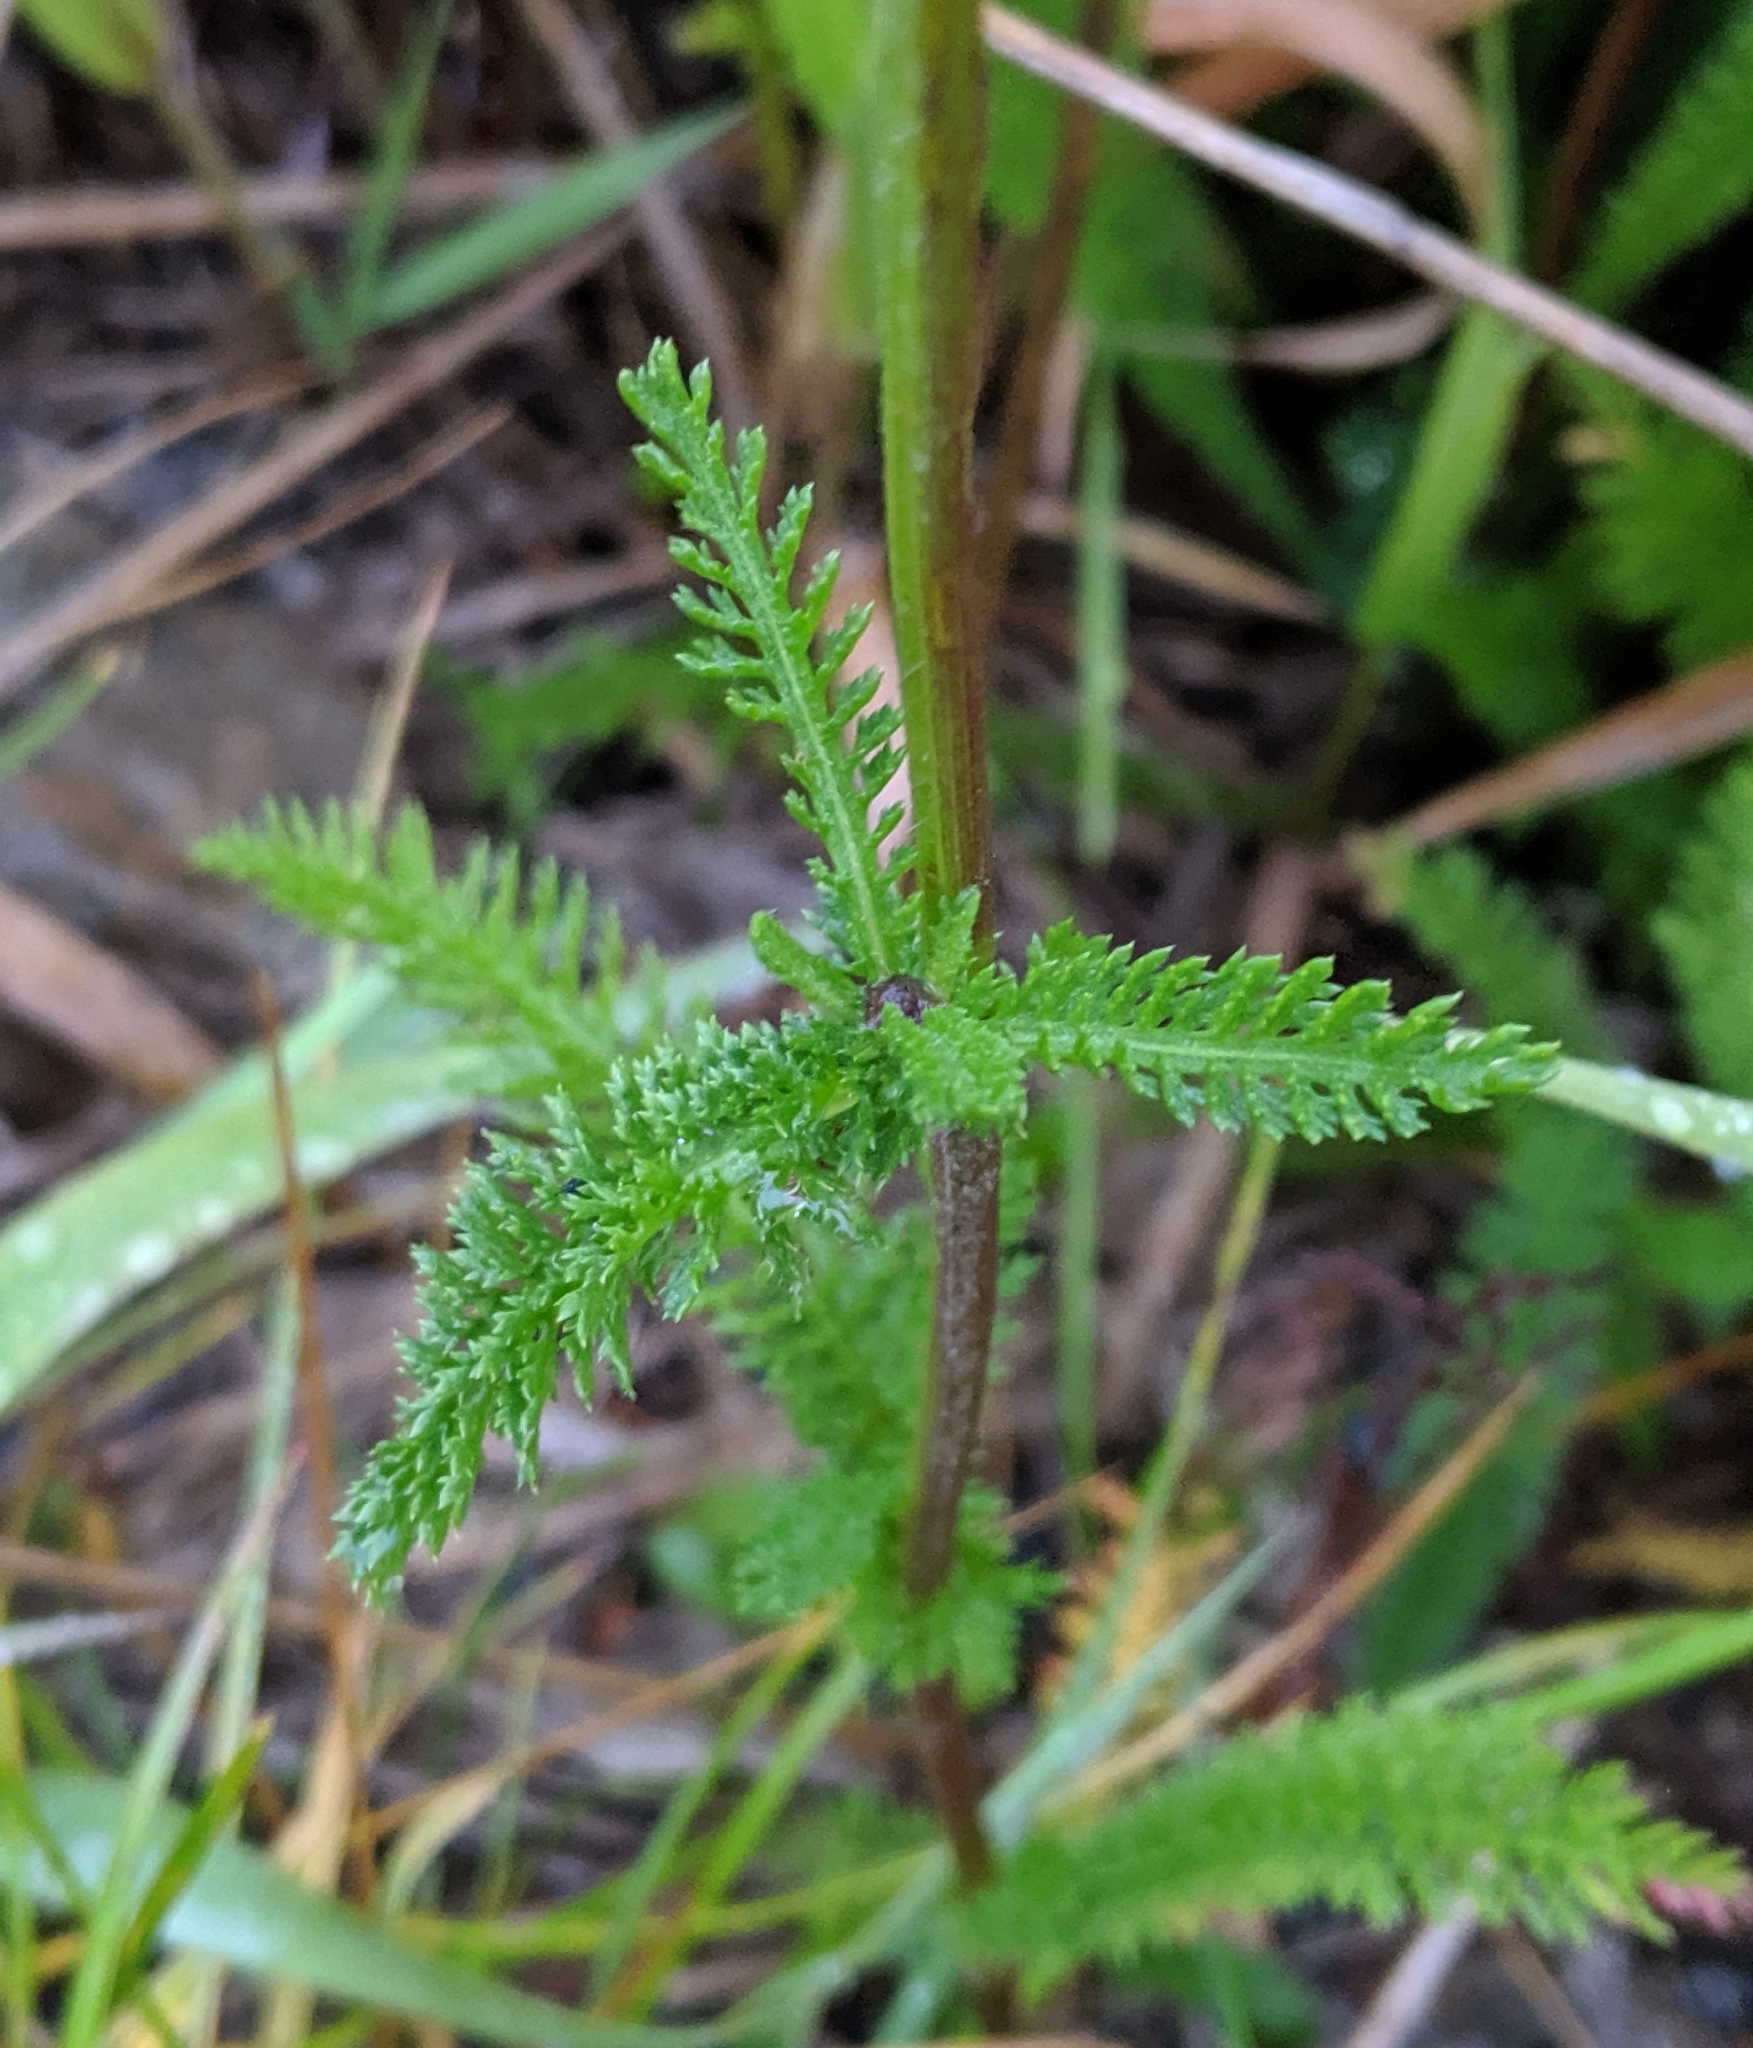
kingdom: Plantae
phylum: Tracheophyta
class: Magnoliopsida
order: Asterales
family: Asteraceae
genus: Achillea
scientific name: Achillea millefolium
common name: Yarrow
